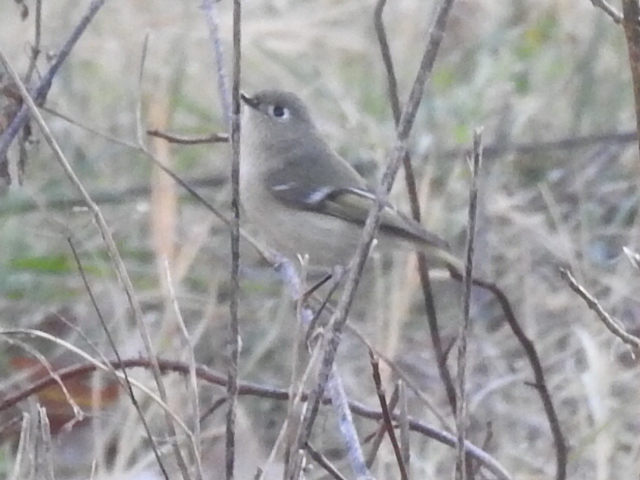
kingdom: Animalia
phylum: Chordata
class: Aves
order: Passeriformes
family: Regulidae
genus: Regulus
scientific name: Regulus calendula
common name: Ruby-crowned kinglet
